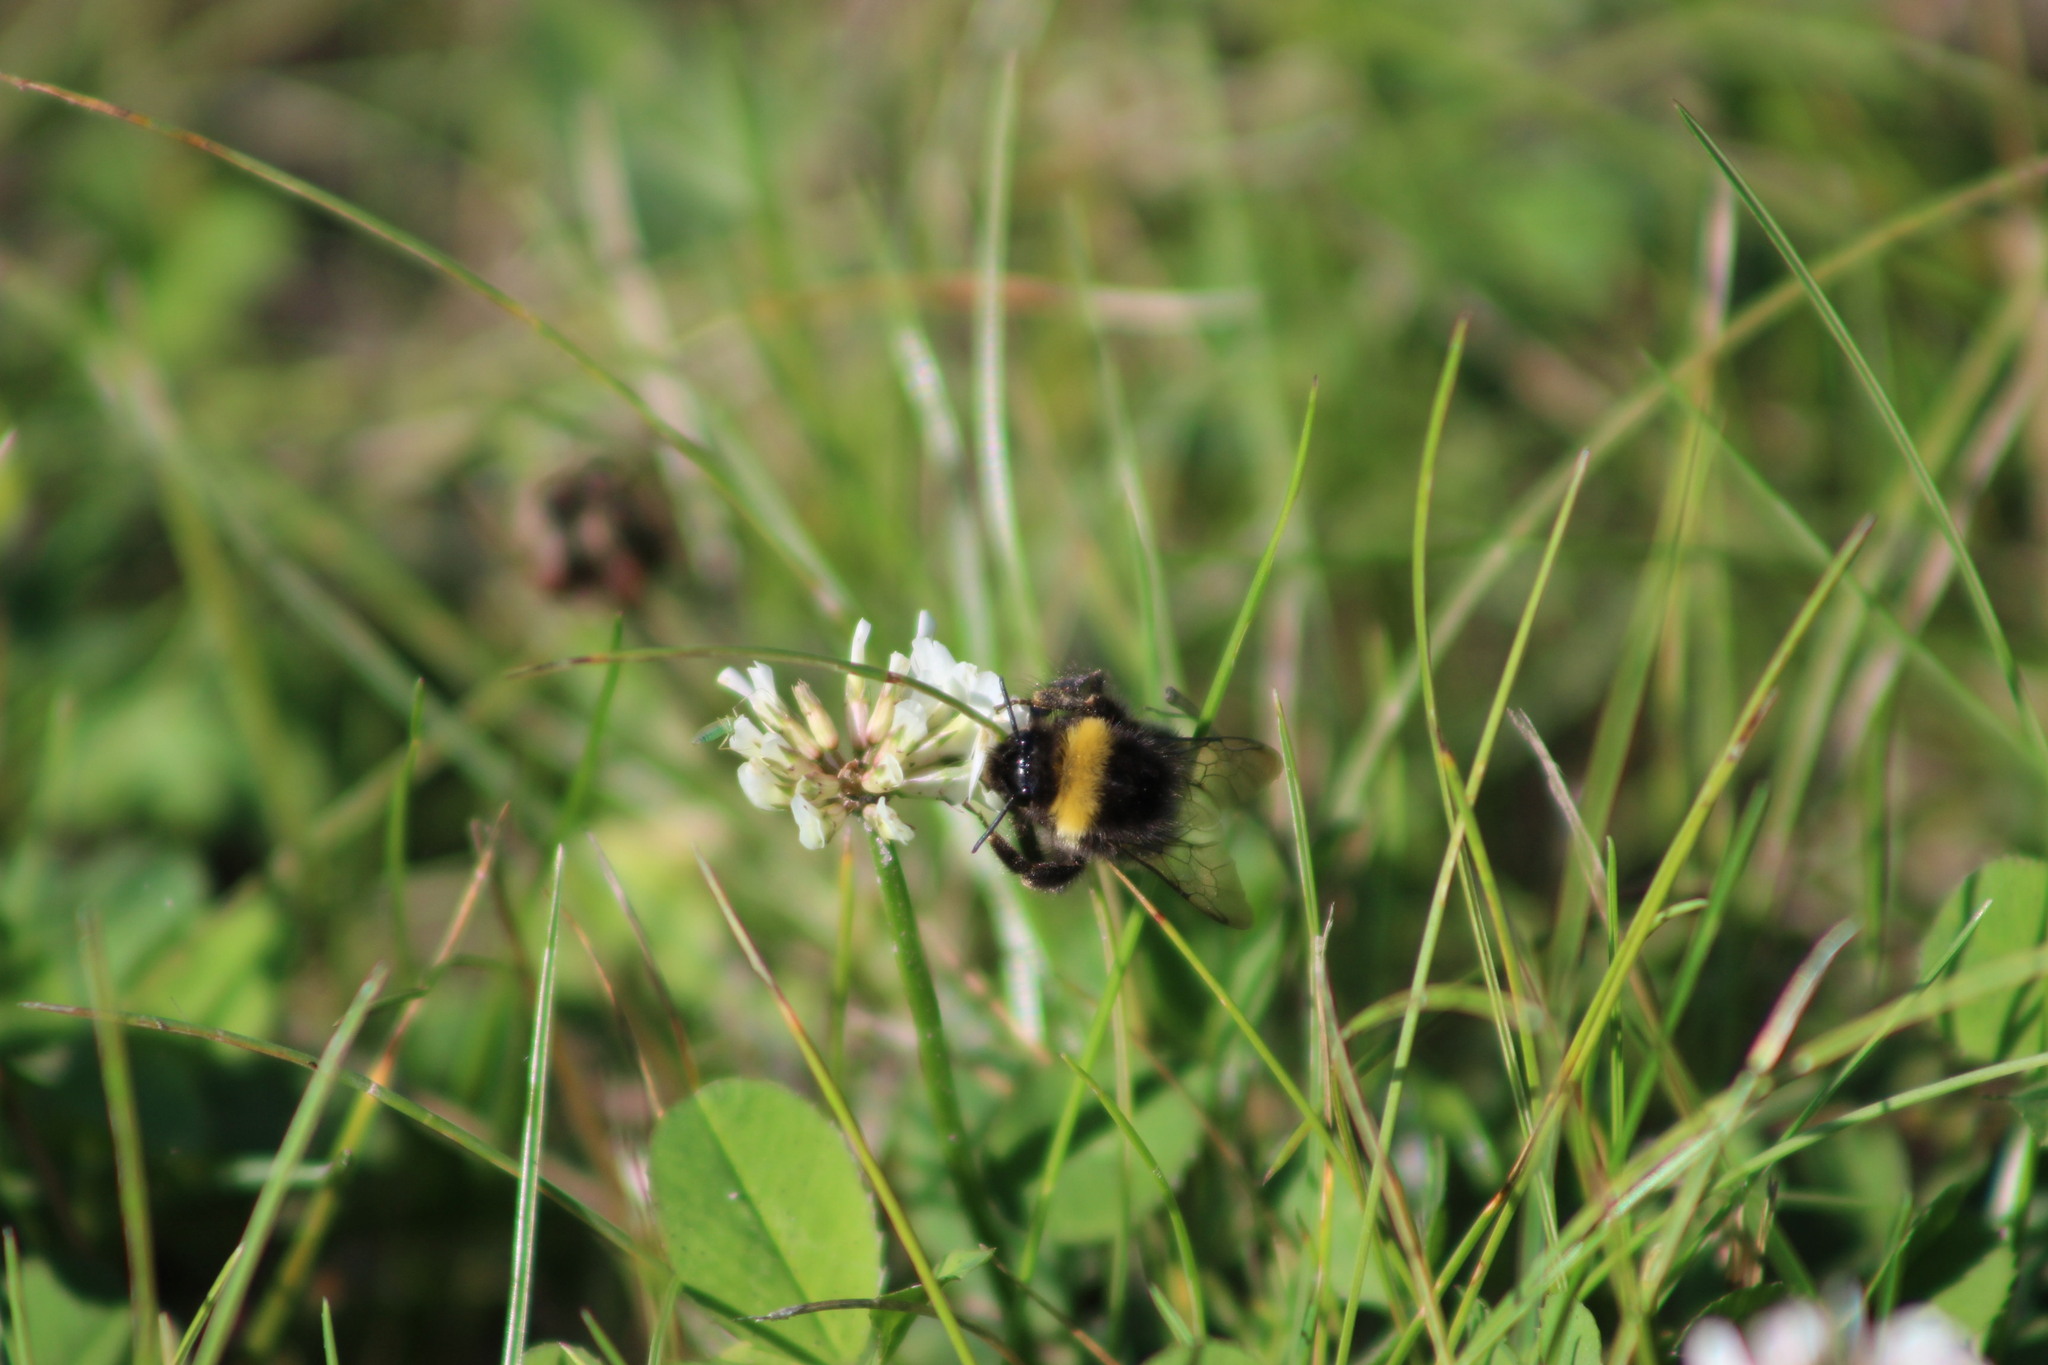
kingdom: Animalia
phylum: Arthropoda
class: Insecta
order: Hymenoptera
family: Apidae
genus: Bombus
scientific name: Bombus
